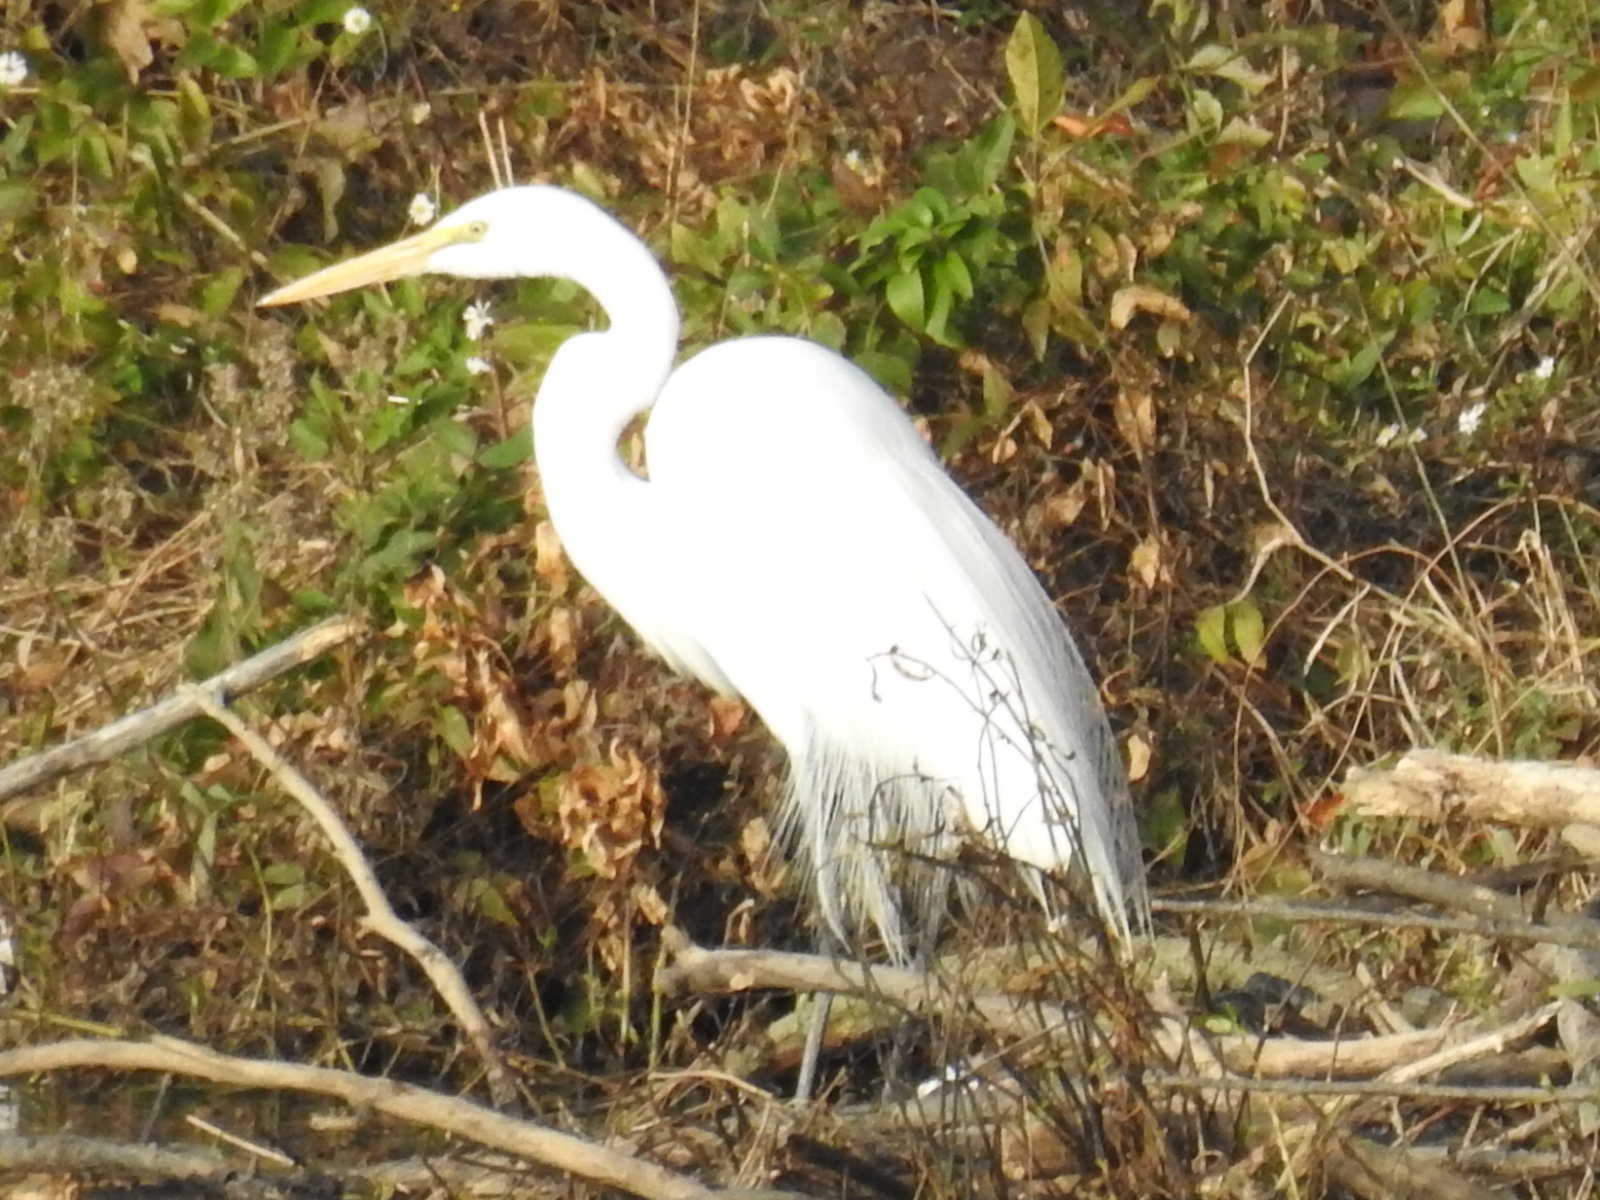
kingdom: Animalia
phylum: Chordata
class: Aves
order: Pelecaniformes
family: Ardeidae
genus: Ardea
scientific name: Ardea alba
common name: Great egret
